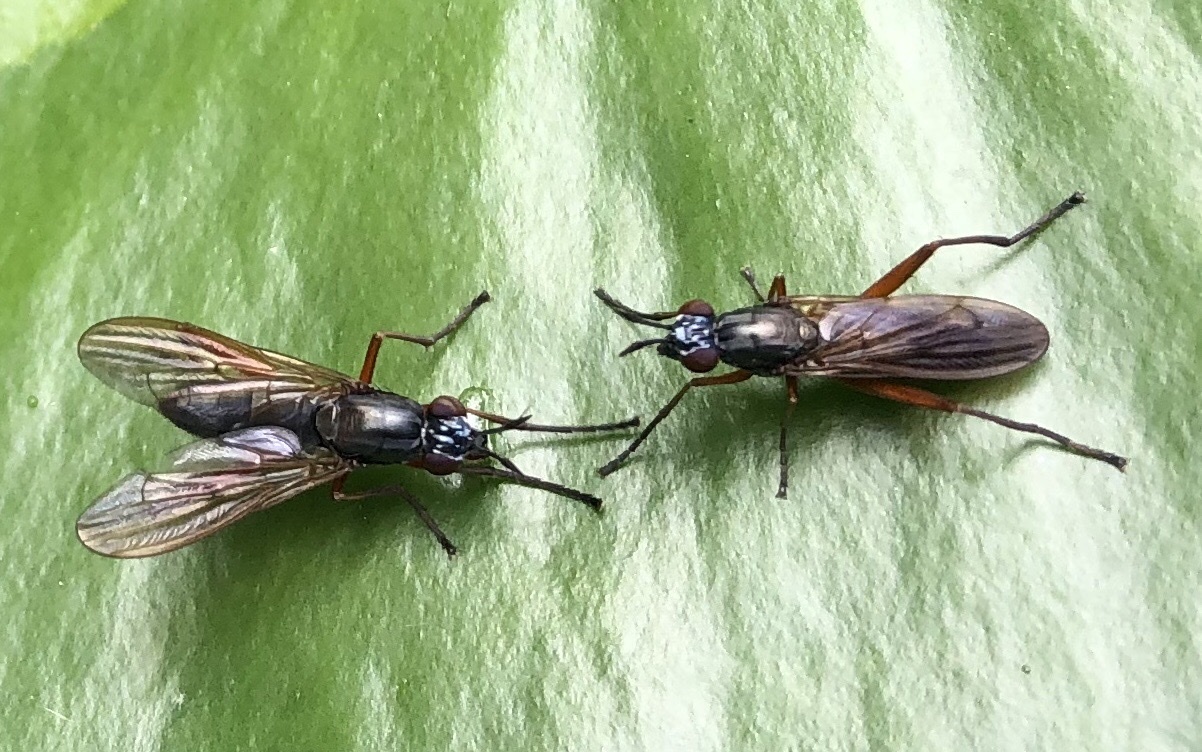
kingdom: Animalia
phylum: Arthropoda
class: Insecta
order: Diptera
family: Sciomyzidae
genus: Sepedon
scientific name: Sepedon sphegea
